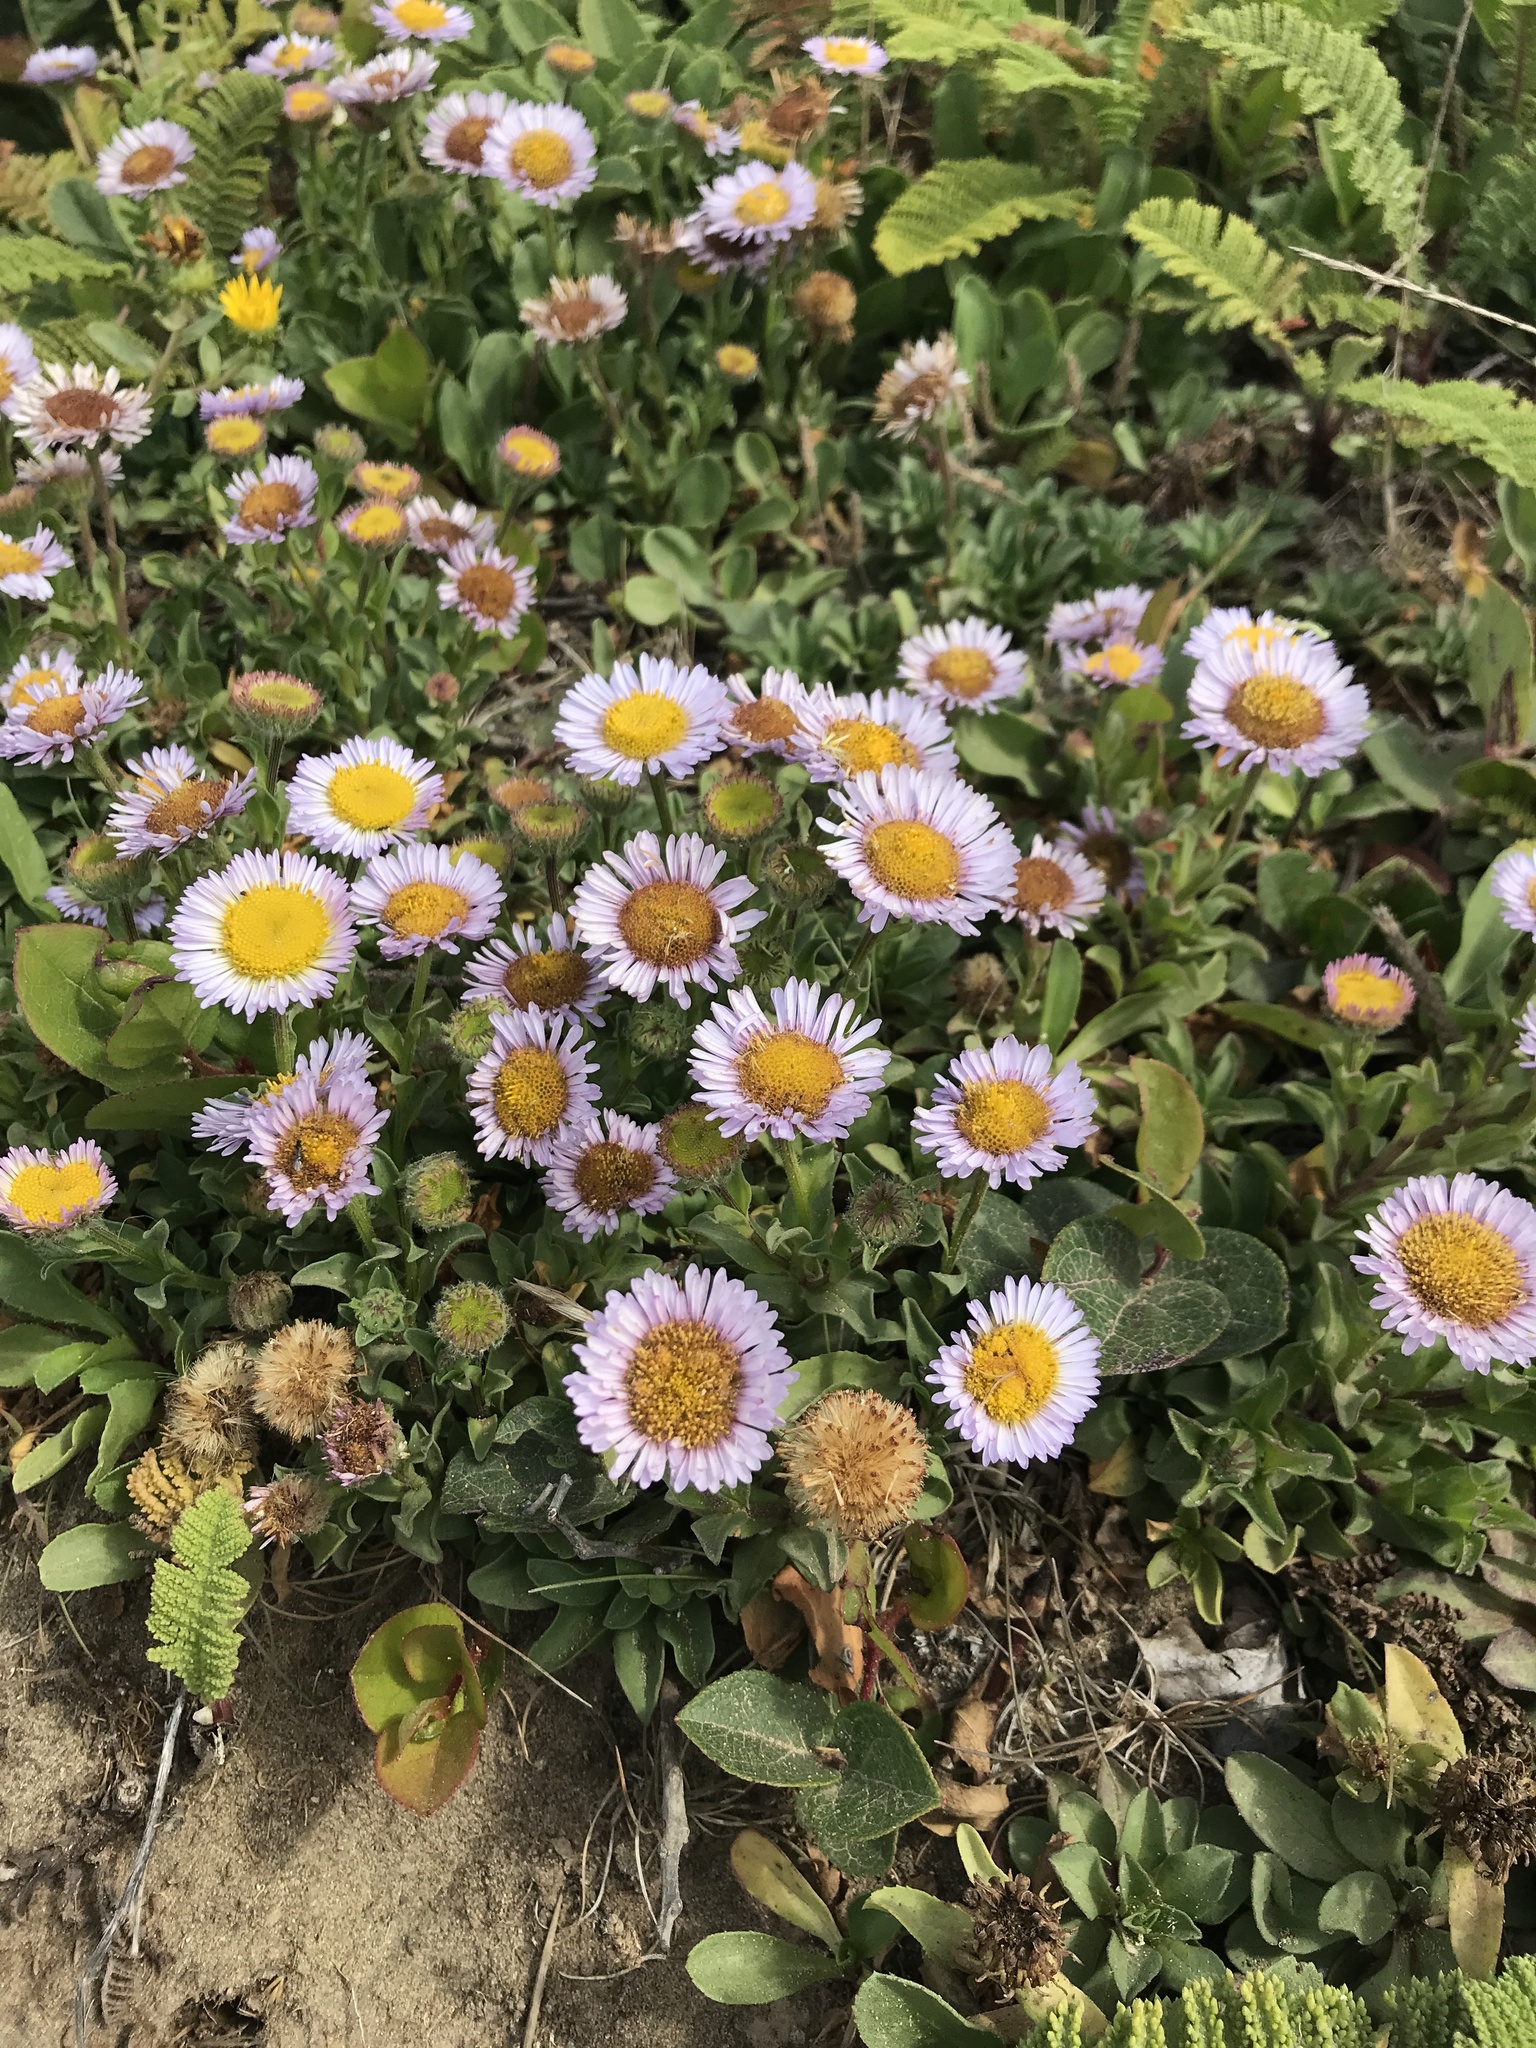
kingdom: Plantae
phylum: Tracheophyta
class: Magnoliopsida
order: Asterales
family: Asteraceae
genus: Erigeron
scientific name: Erigeron glaucus
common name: Seaside daisy
